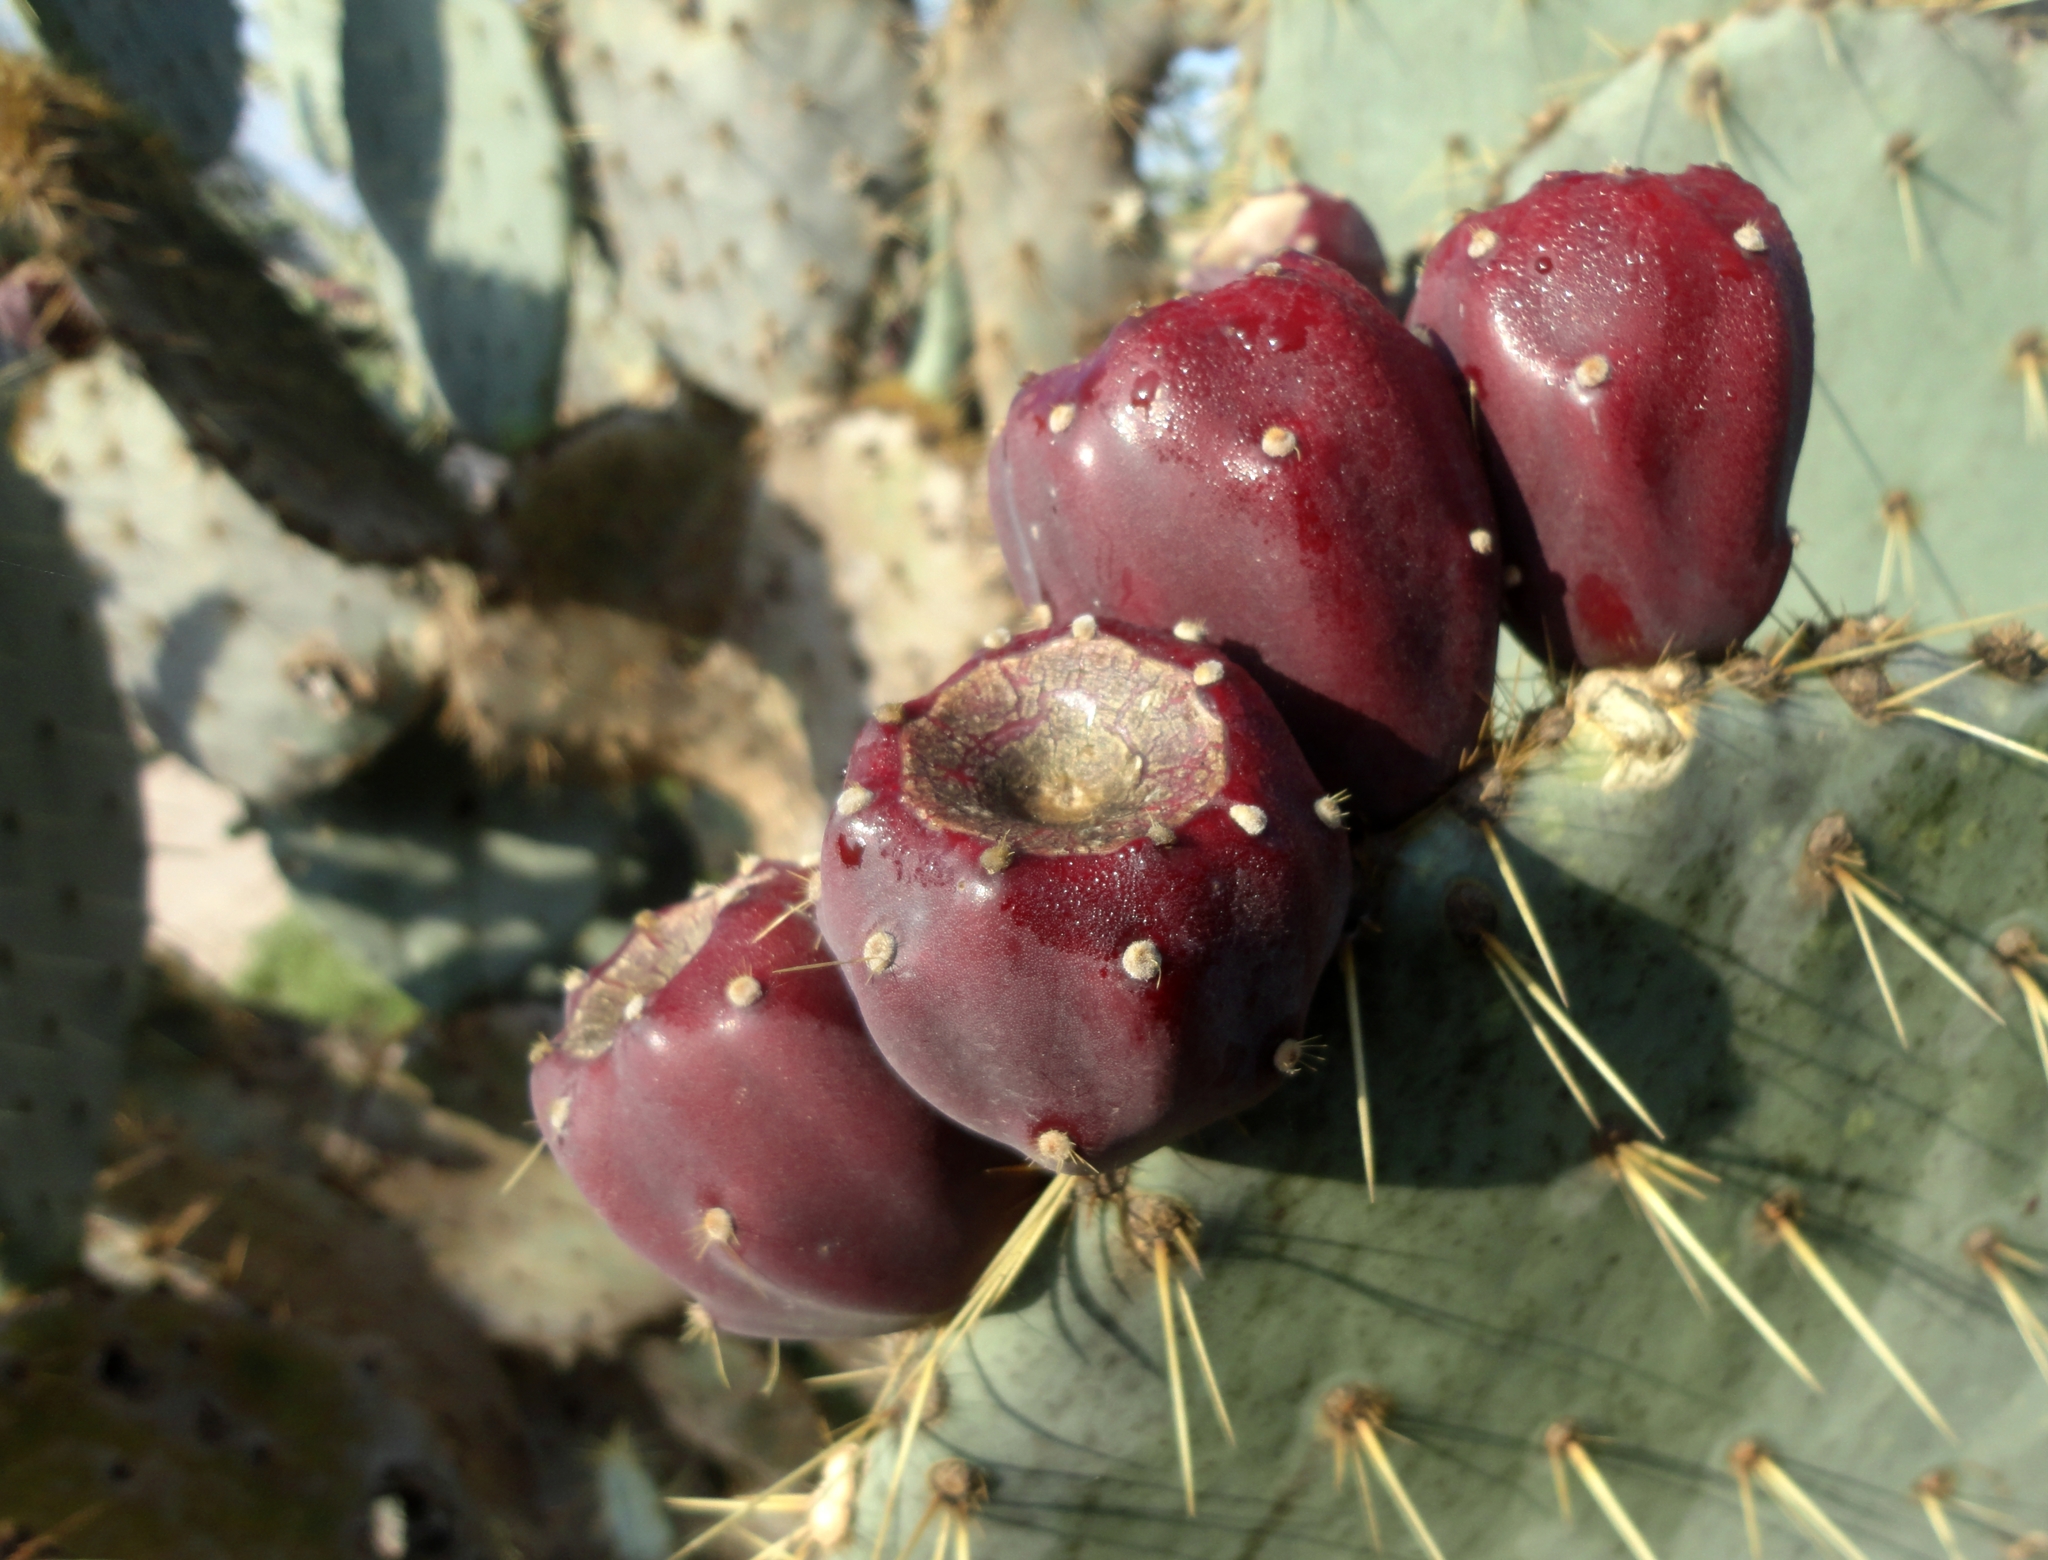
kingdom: Plantae
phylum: Tracheophyta
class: Magnoliopsida
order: Caryophyllales
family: Cactaceae
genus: Opuntia
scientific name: Opuntia robusta
